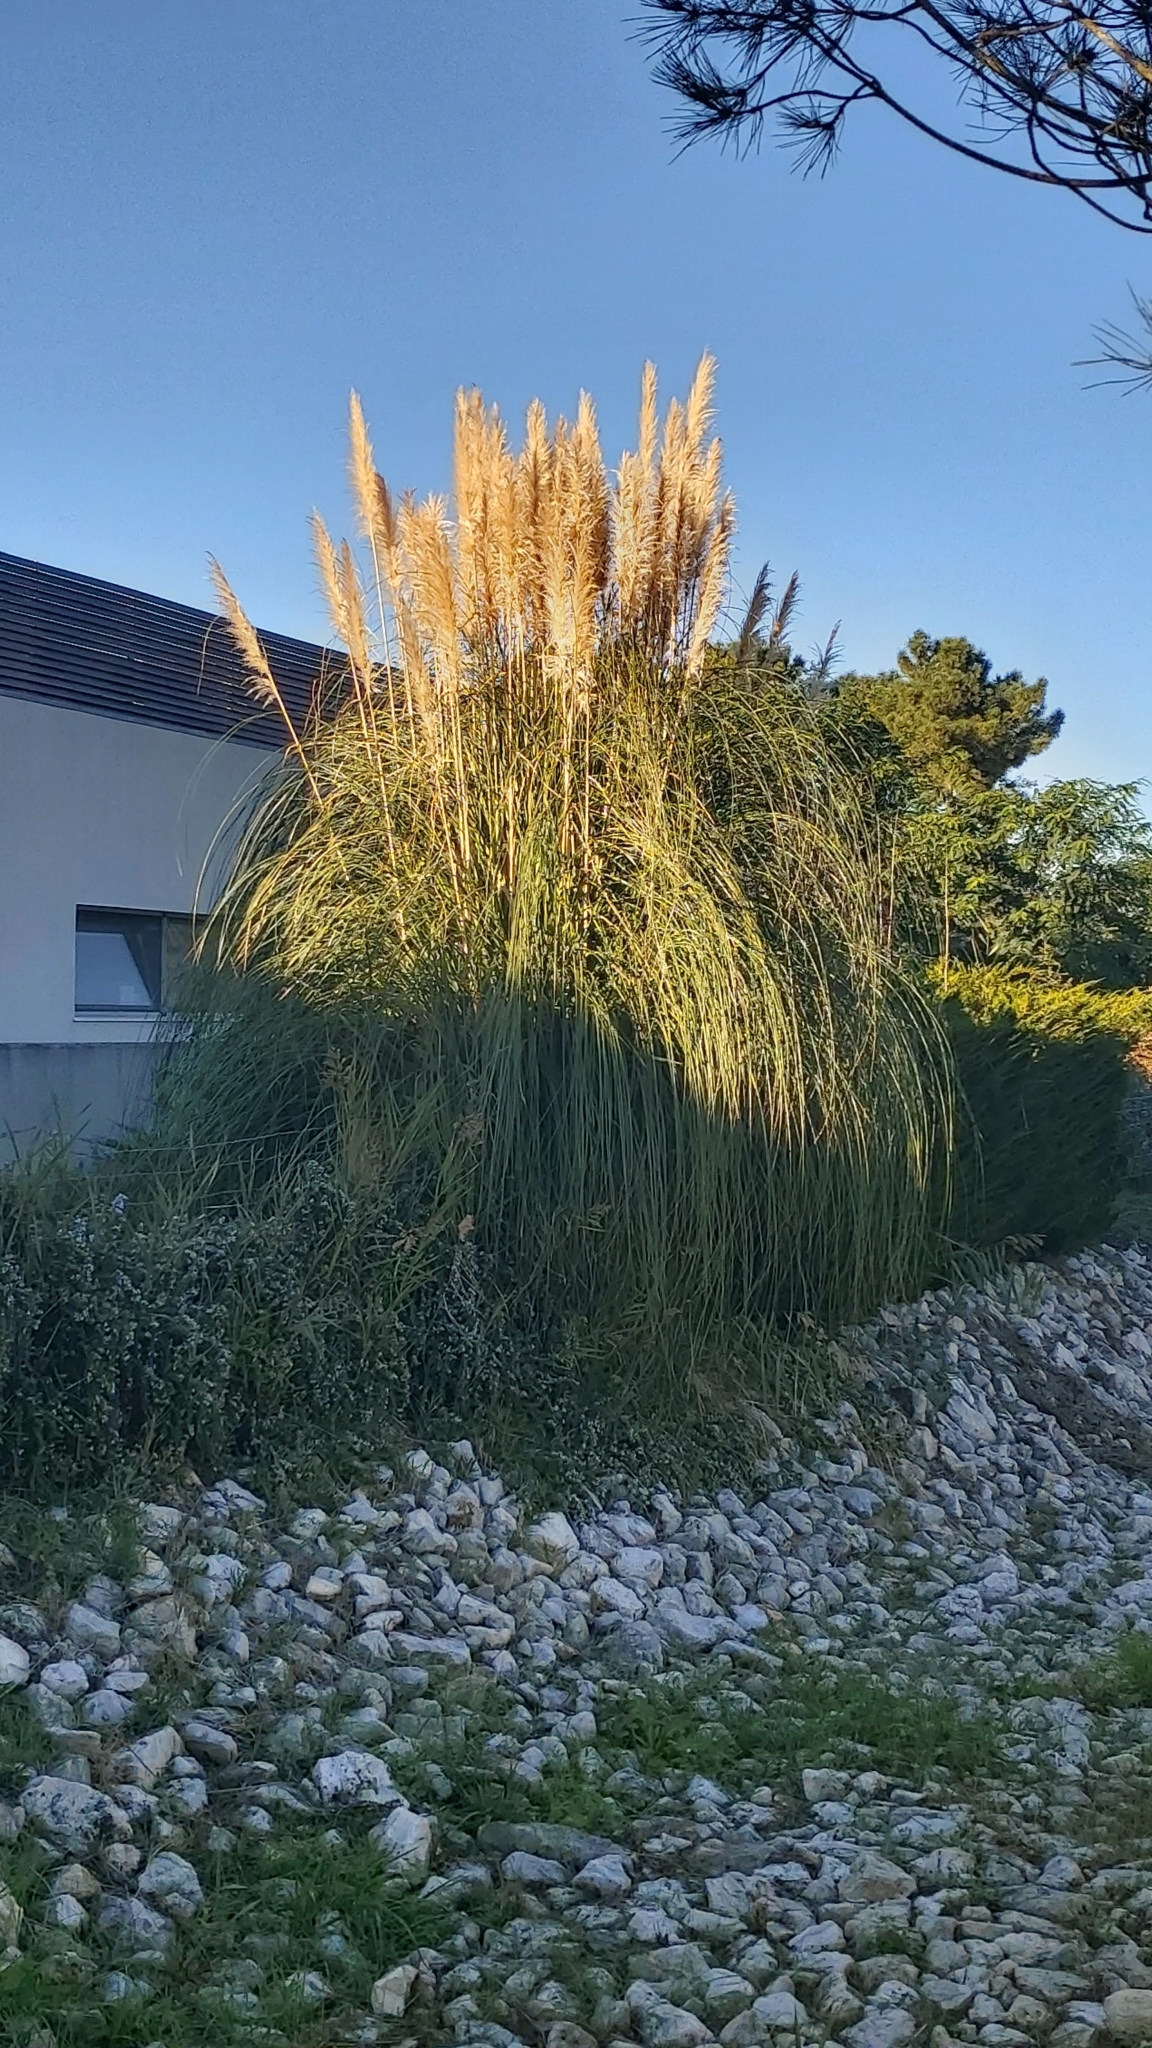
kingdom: Plantae
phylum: Tracheophyta
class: Liliopsida
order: Poales
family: Poaceae
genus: Cortaderia
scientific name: Cortaderia selloana
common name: Uruguayan pampas grass
